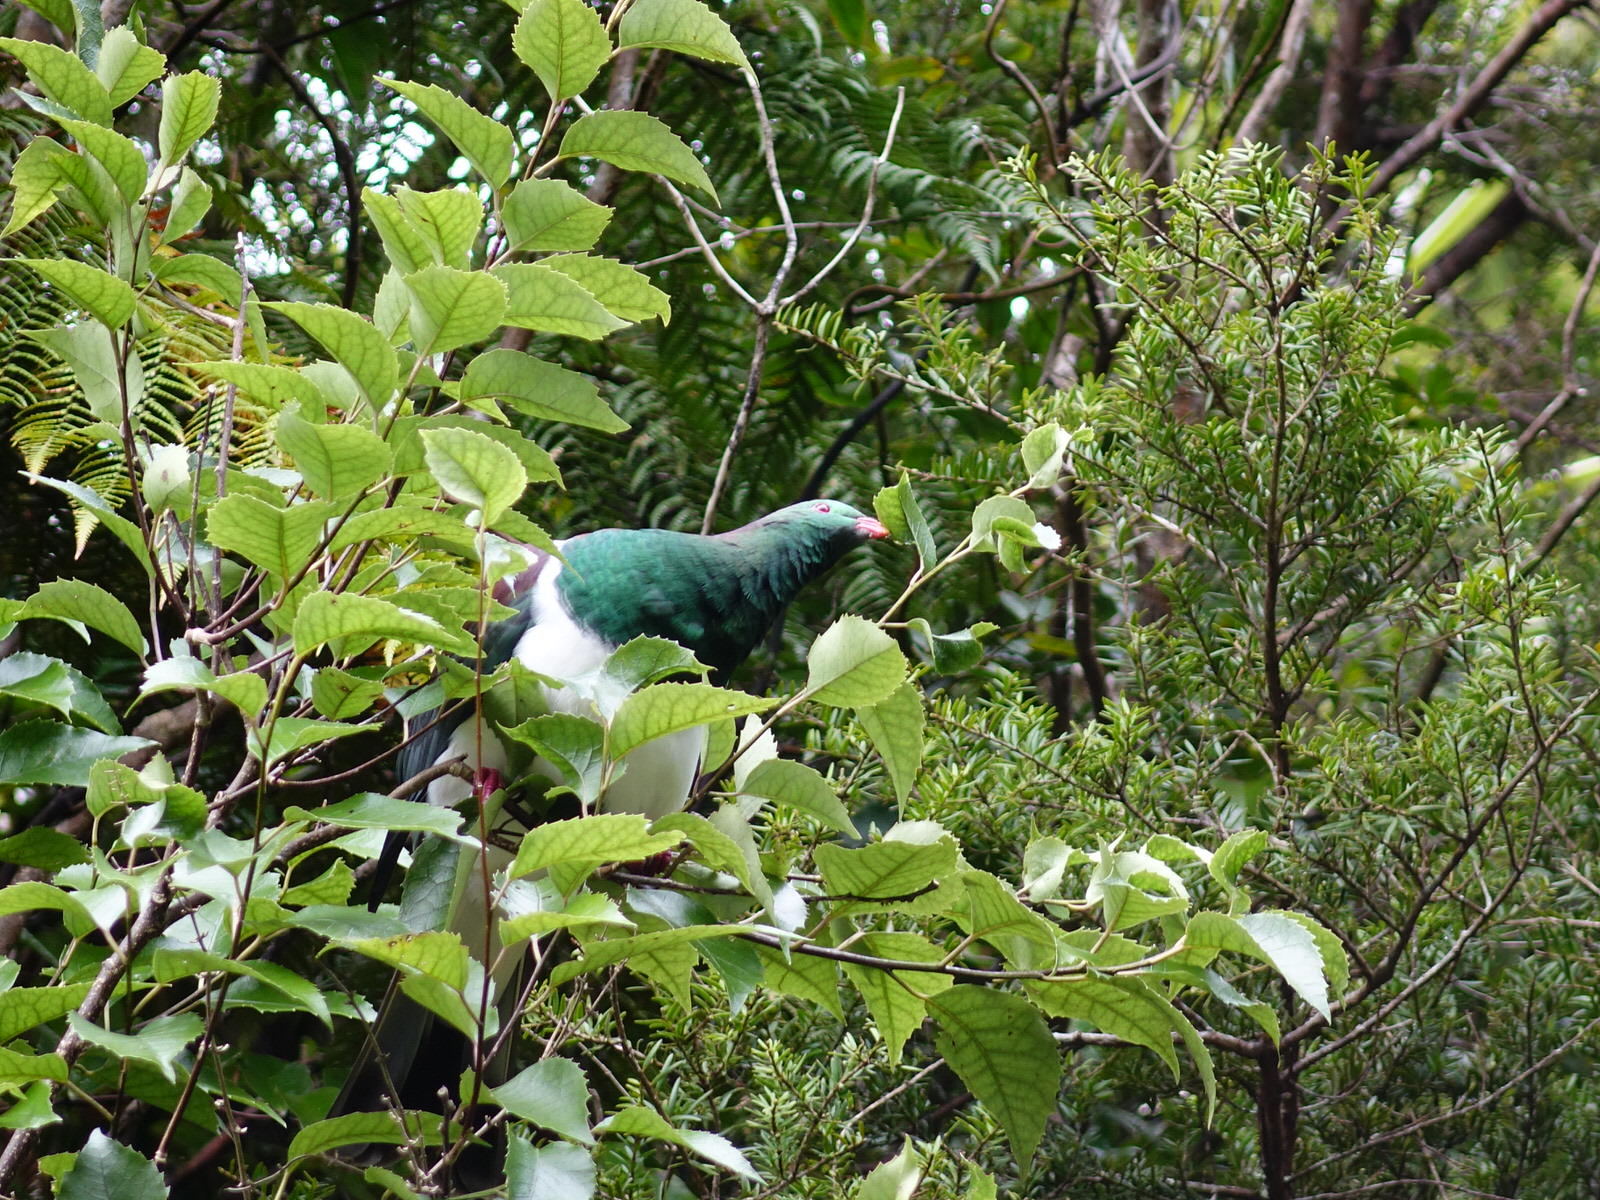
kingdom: Animalia
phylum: Chordata
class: Aves
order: Columbiformes
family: Columbidae
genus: Hemiphaga
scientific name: Hemiphaga novaeseelandiae
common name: New zealand pigeon
